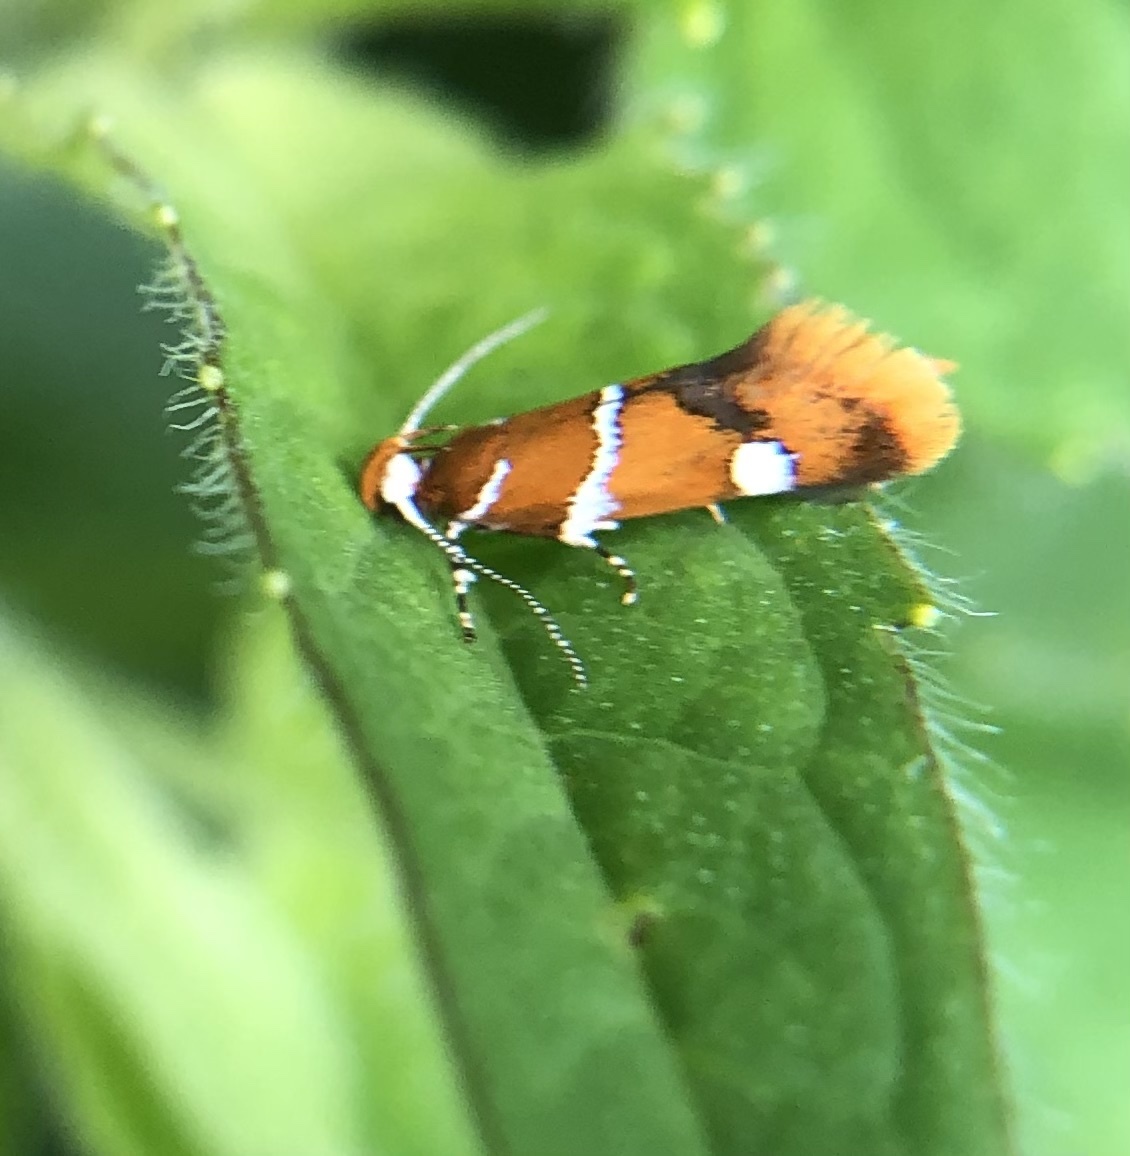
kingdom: Animalia
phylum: Arthropoda
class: Insecta
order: Lepidoptera
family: Oecophoridae
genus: Promalactis
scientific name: Promalactis suzukiella
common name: Moth
